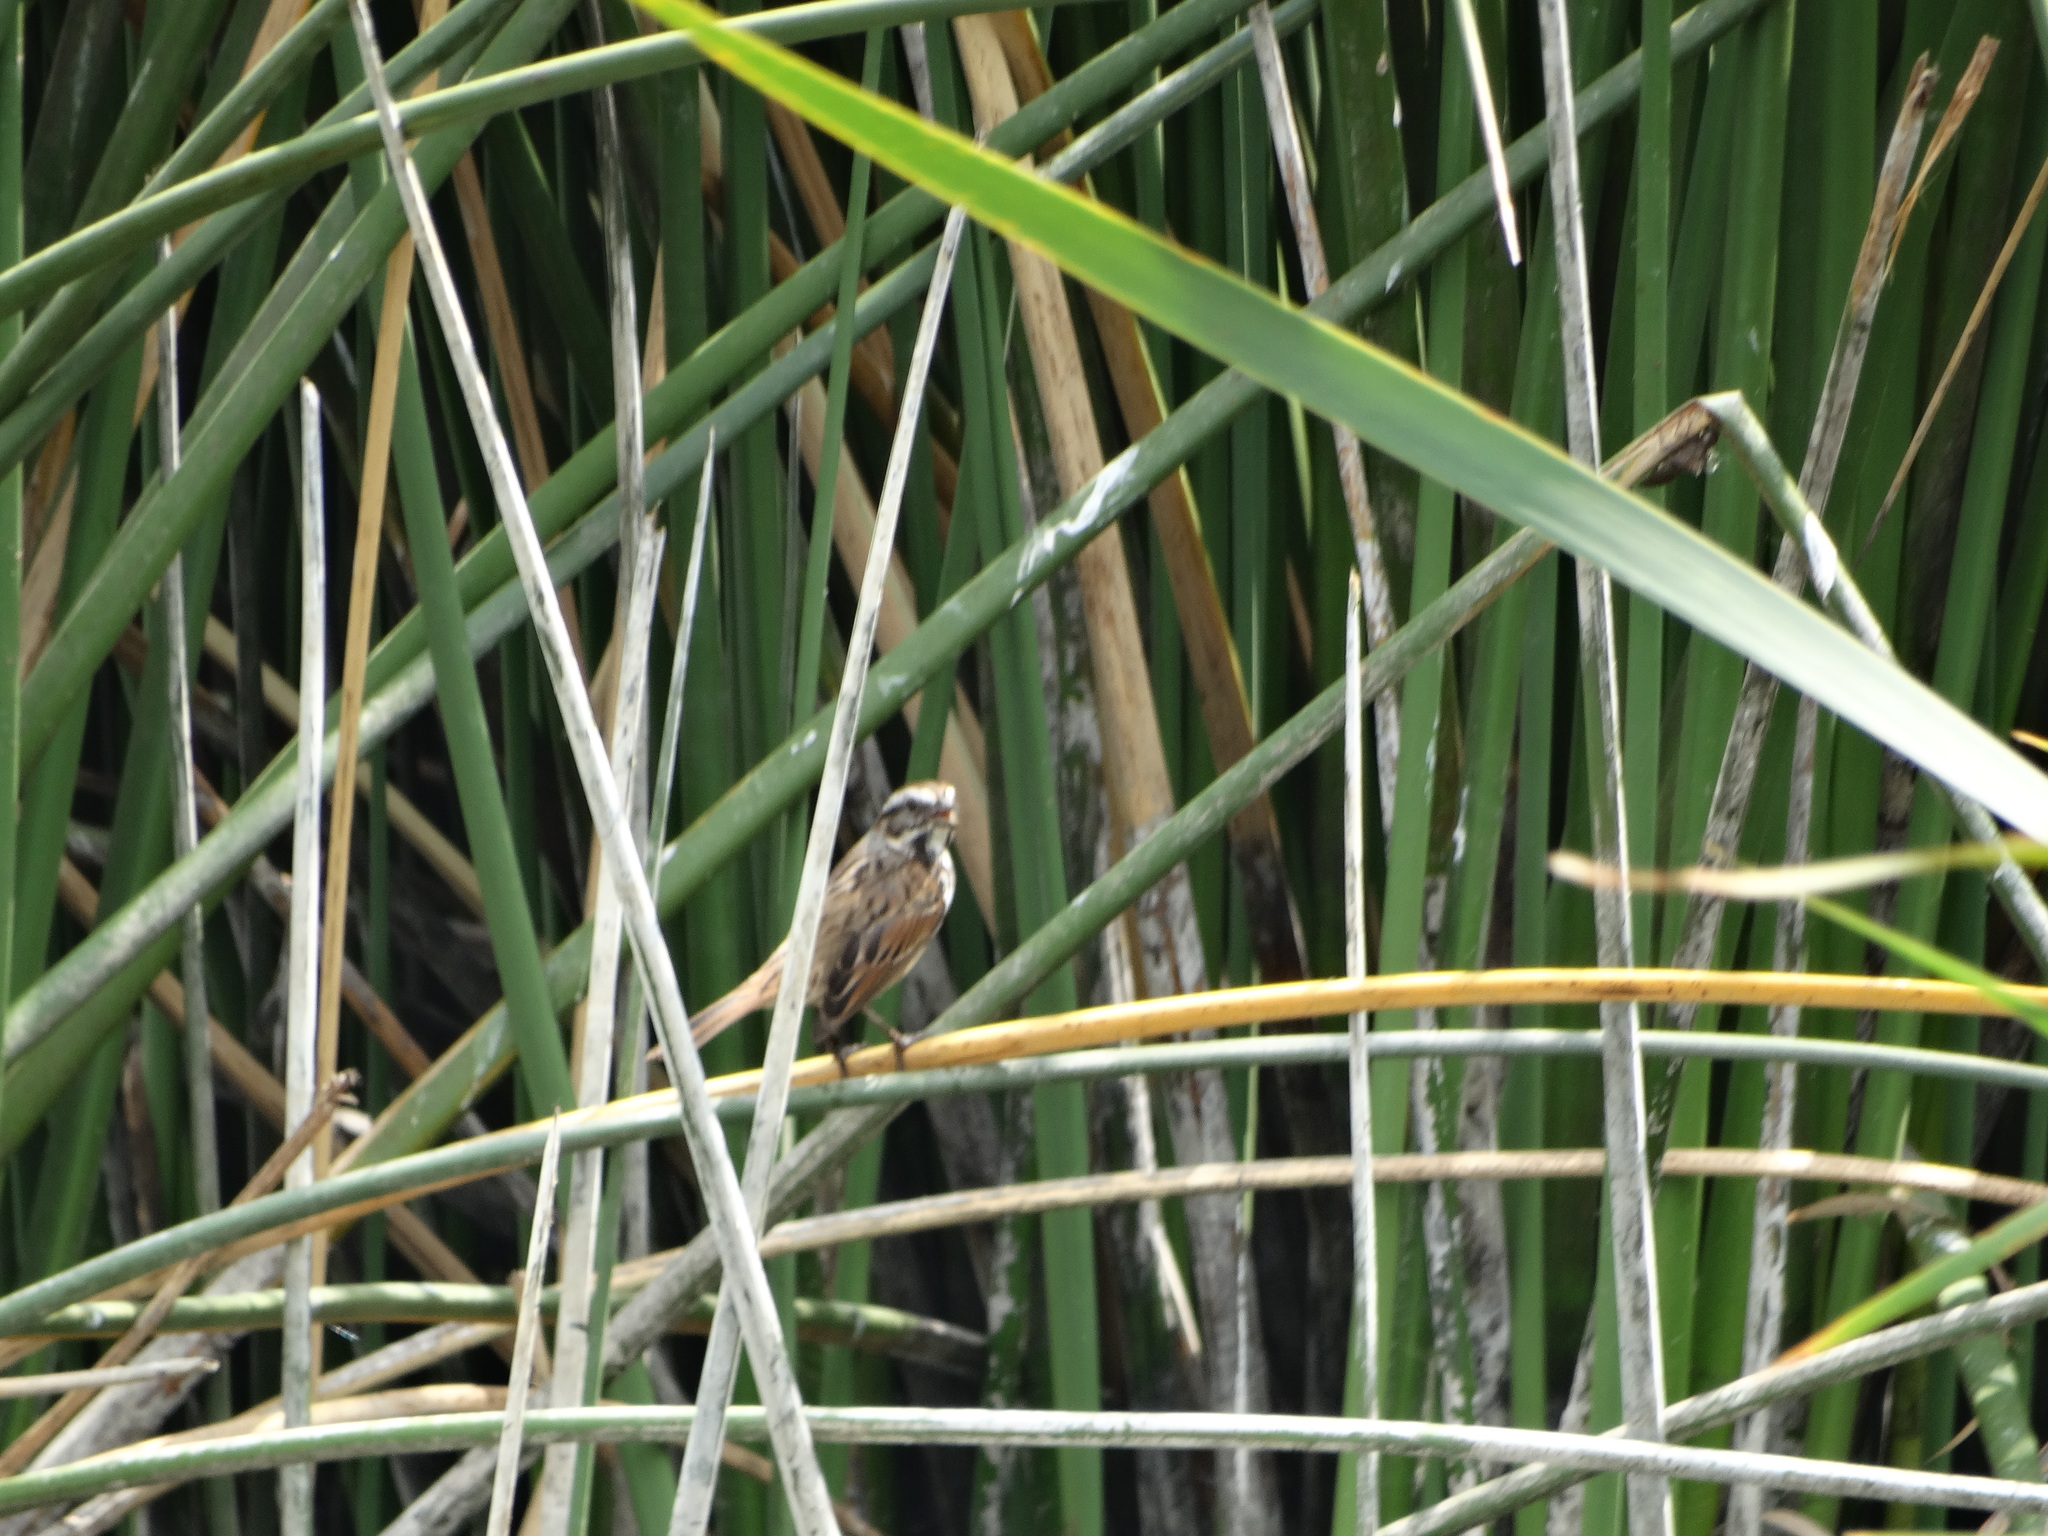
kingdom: Animalia
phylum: Chordata
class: Aves
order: Passeriformes
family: Passerellidae
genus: Melospiza
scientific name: Melospiza melodia
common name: Song sparrow
